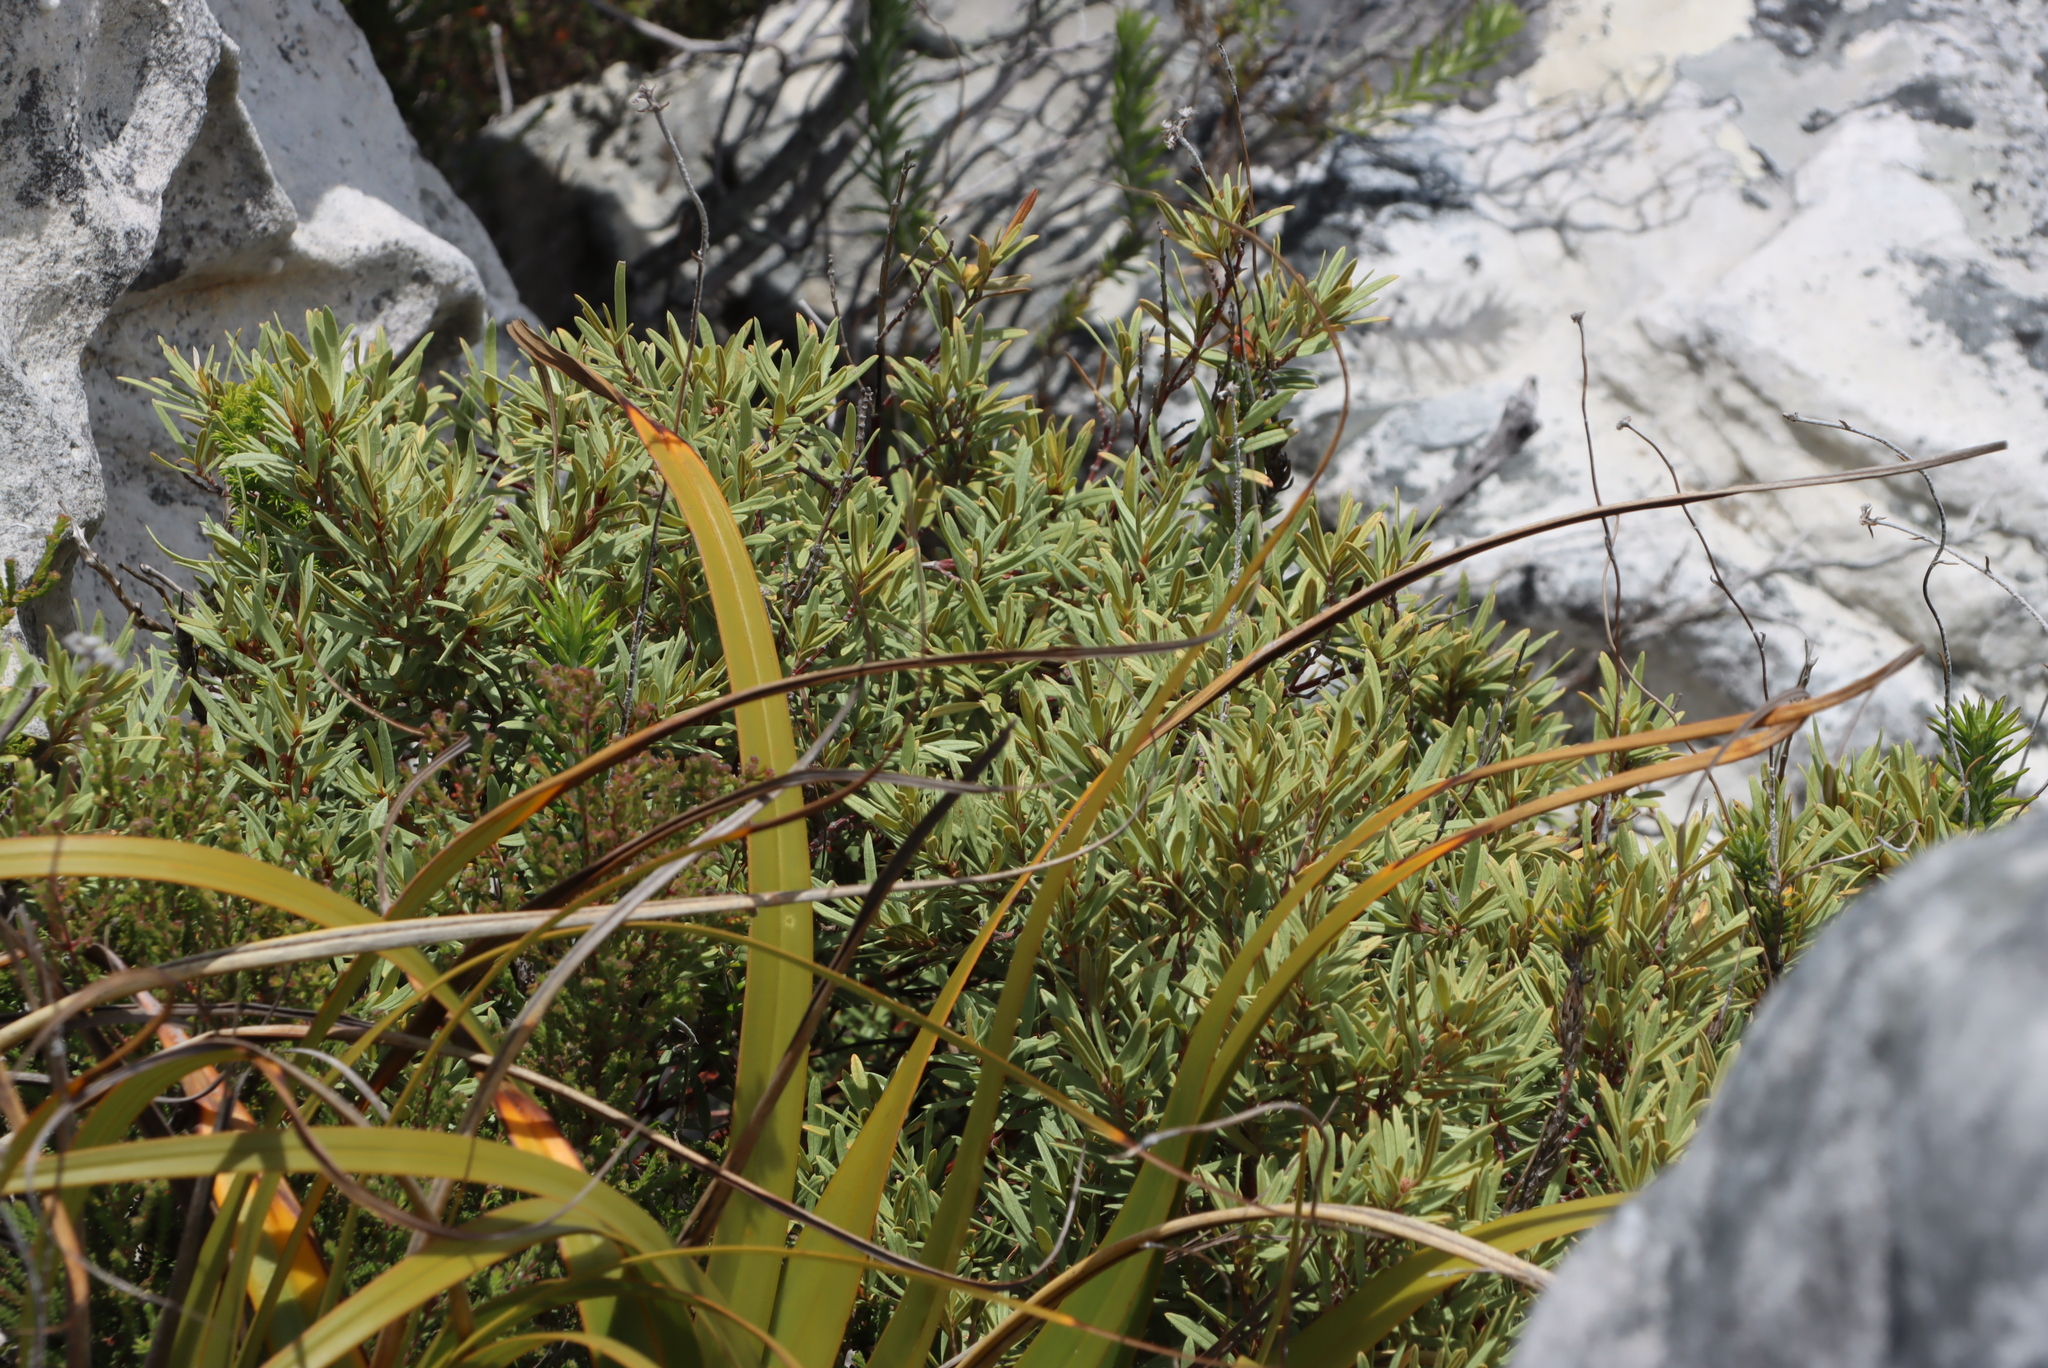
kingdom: Plantae
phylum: Tracheophyta
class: Magnoliopsida
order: Cornales
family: Grubbiaceae
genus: Grubbia
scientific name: Grubbia tomentosa
